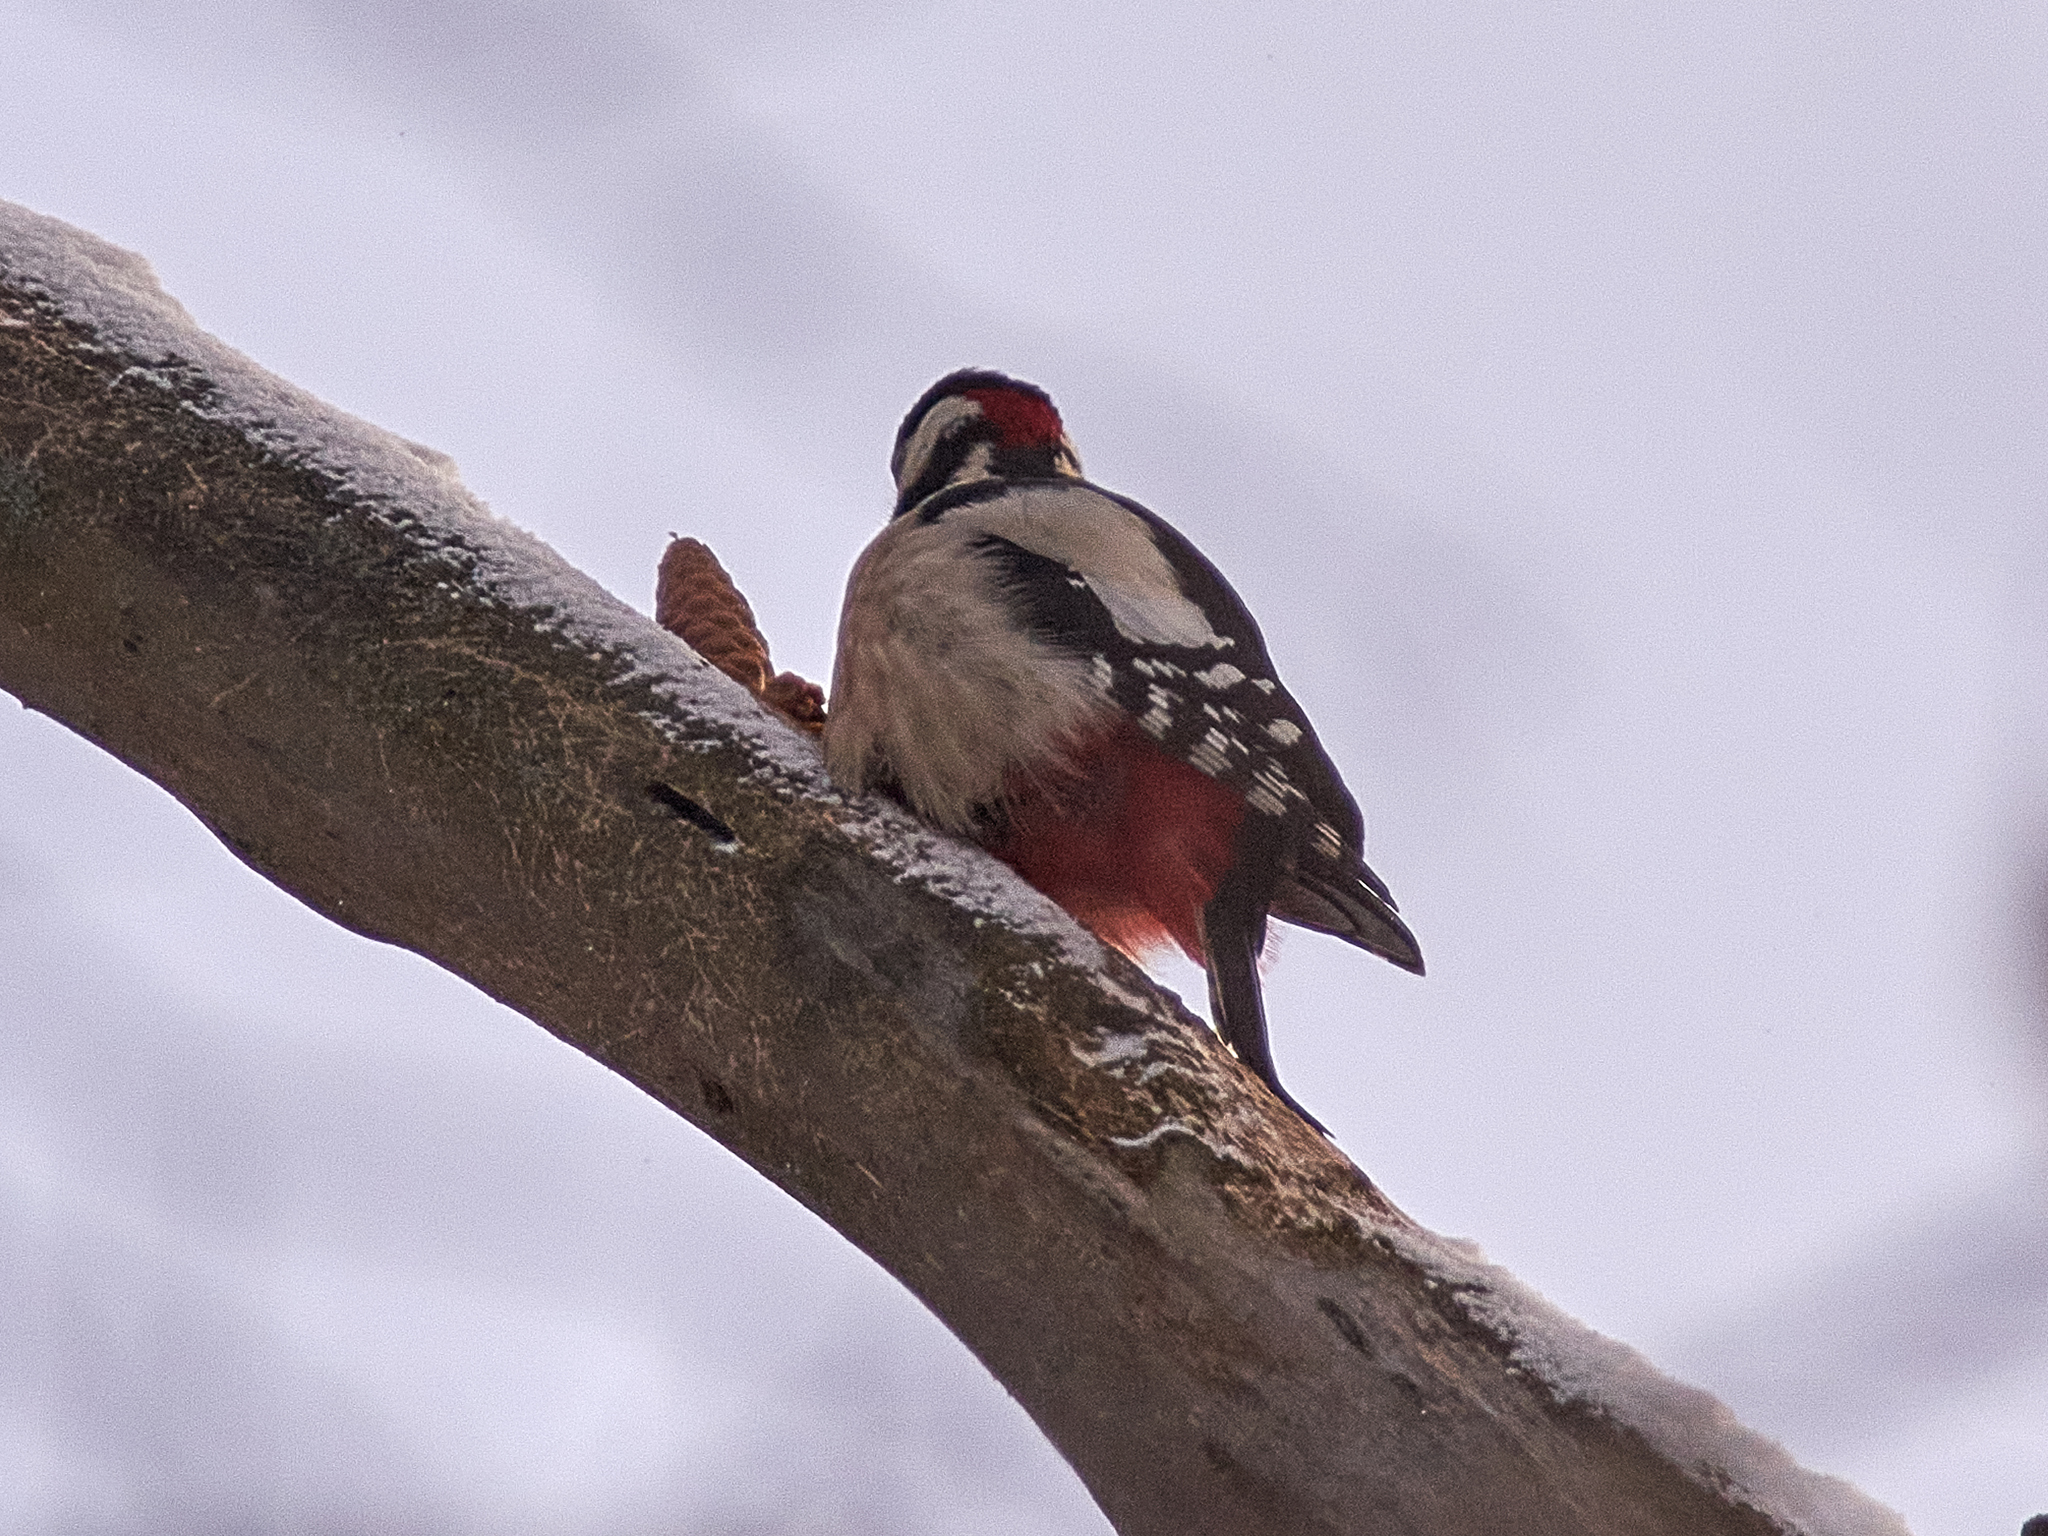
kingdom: Animalia
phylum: Chordata
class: Aves
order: Piciformes
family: Picidae
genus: Dendrocopos
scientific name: Dendrocopos major
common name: Great spotted woodpecker
